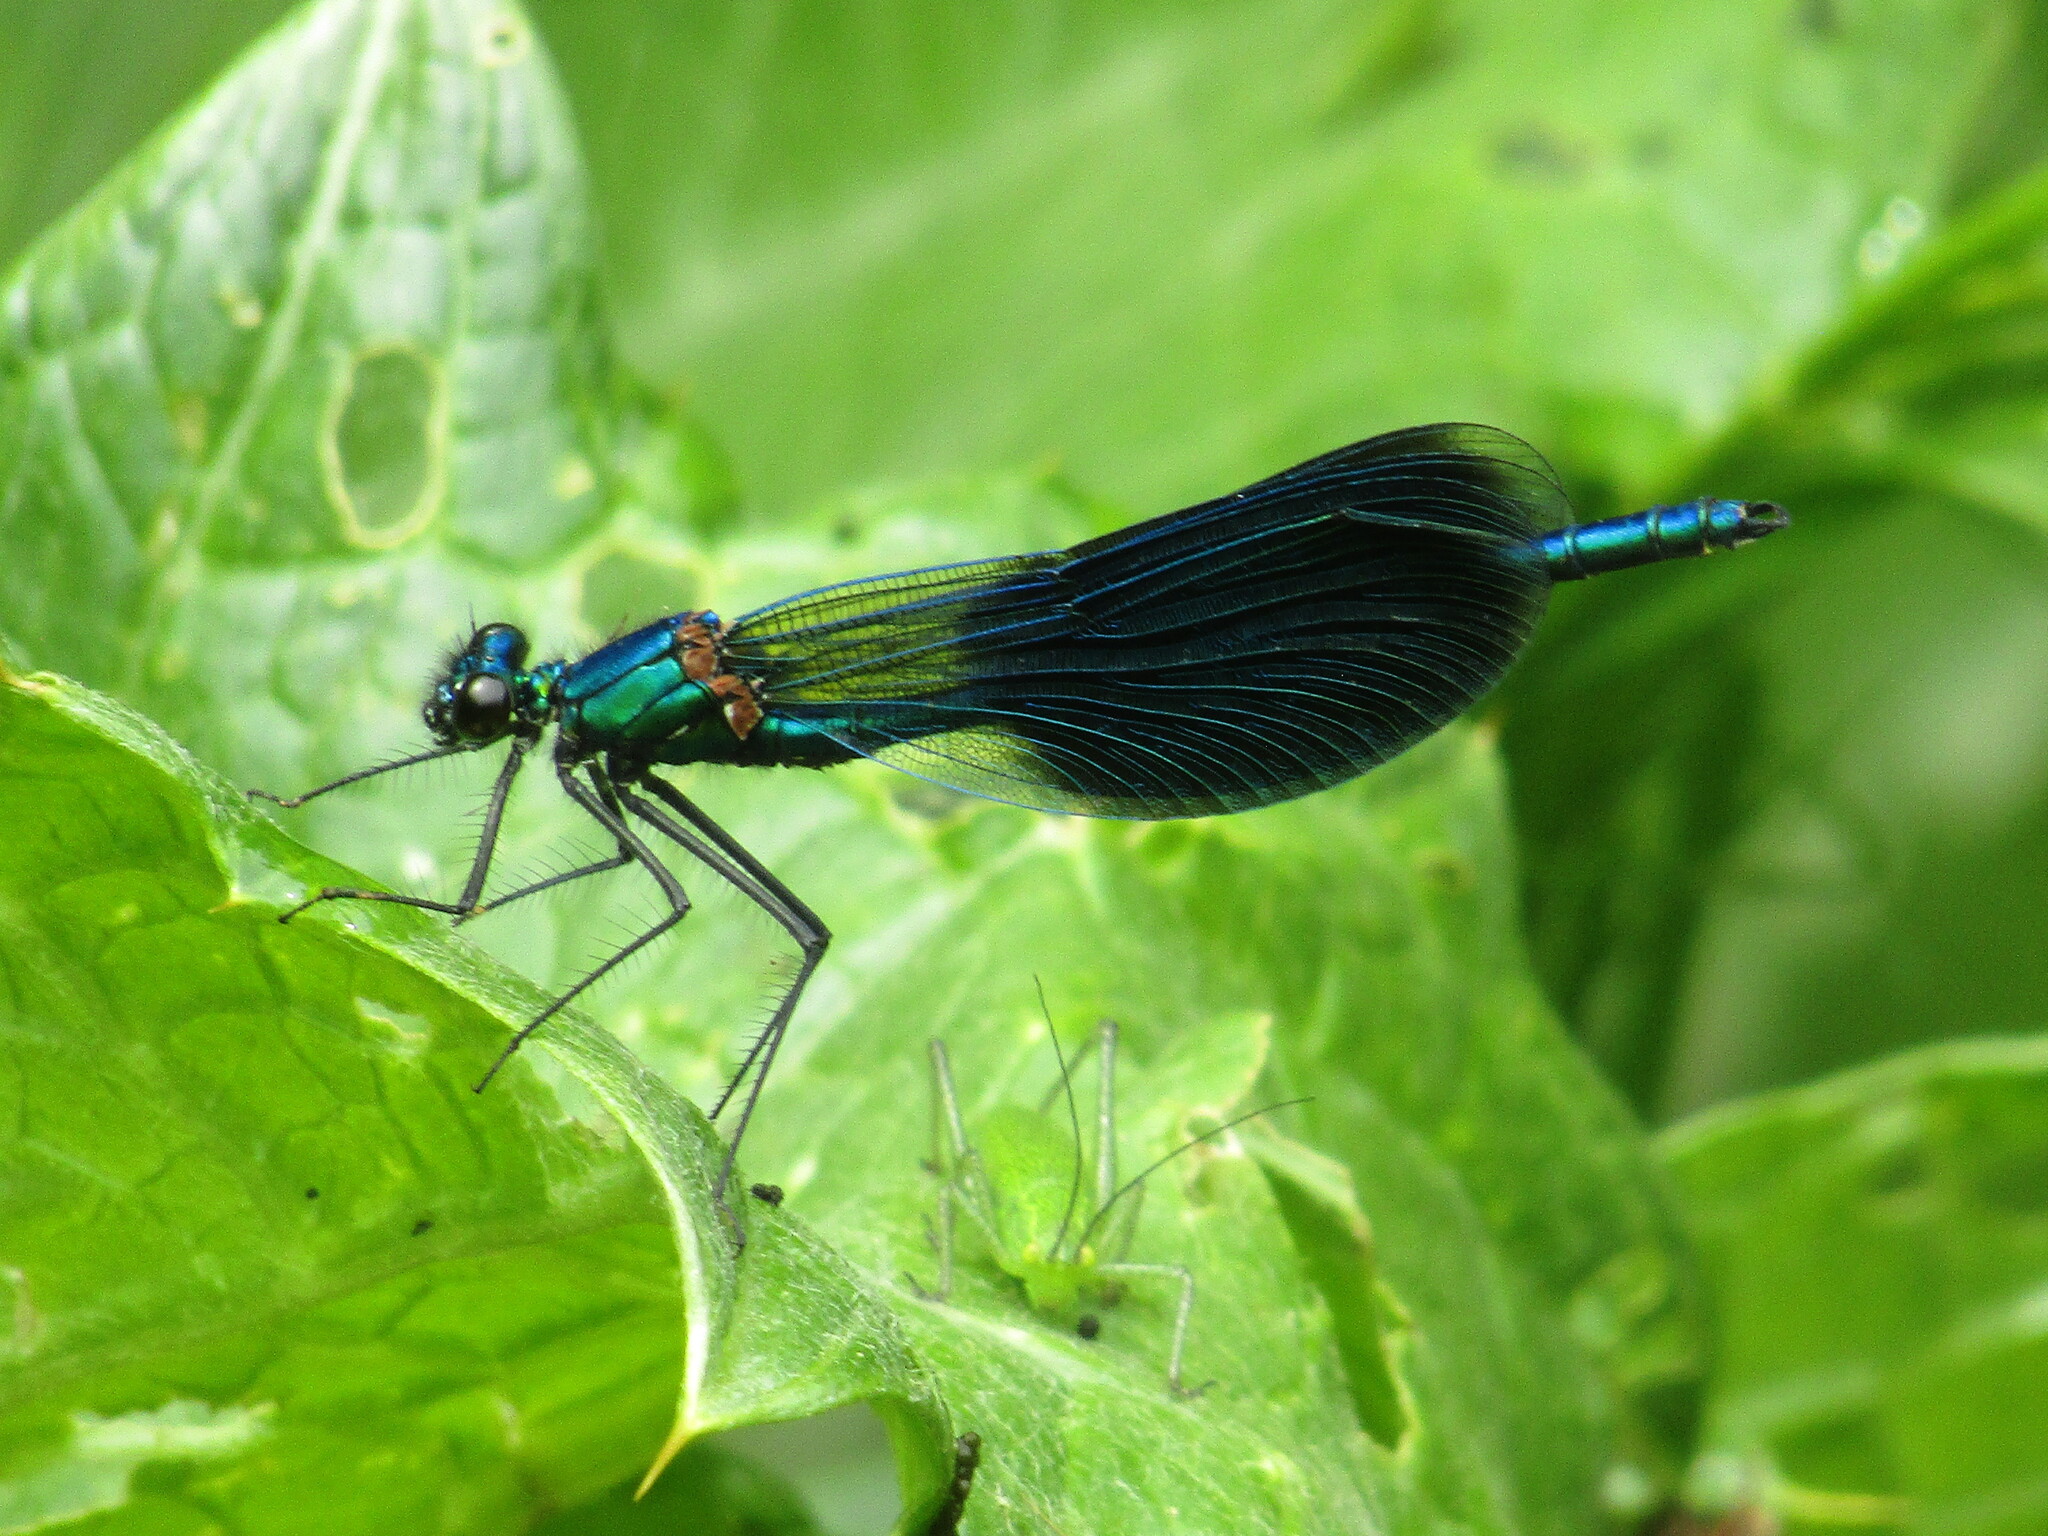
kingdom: Animalia
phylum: Arthropoda
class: Insecta
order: Odonata
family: Calopterygidae
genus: Calopteryx
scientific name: Calopteryx splendens
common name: Banded demoiselle
